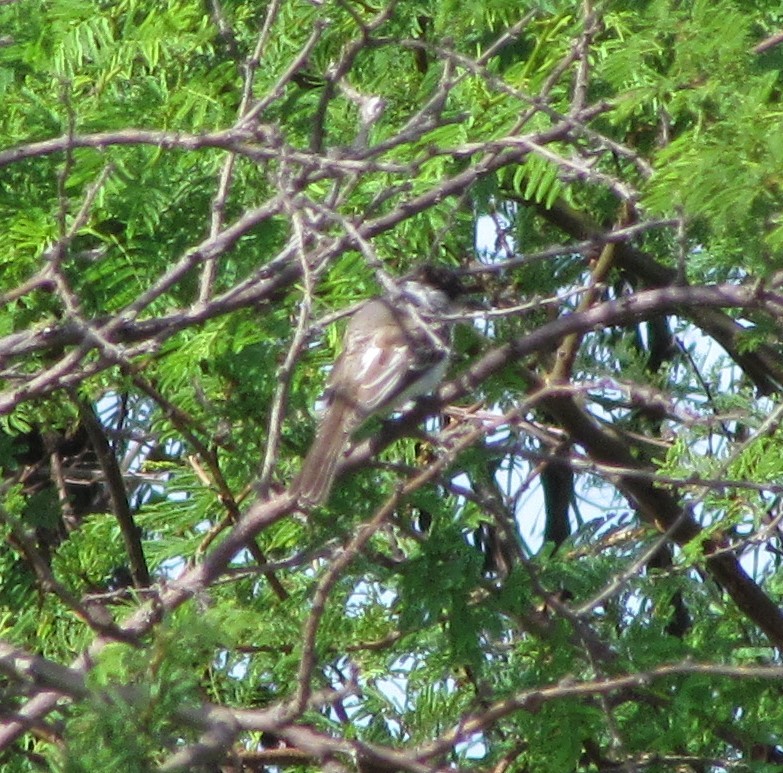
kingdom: Animalia
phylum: Chordata
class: Aves
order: Passeriformes
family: Cotingidae
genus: Xenopsaris
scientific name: Xenopsaris albinucha
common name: White-naped xenopsaris
